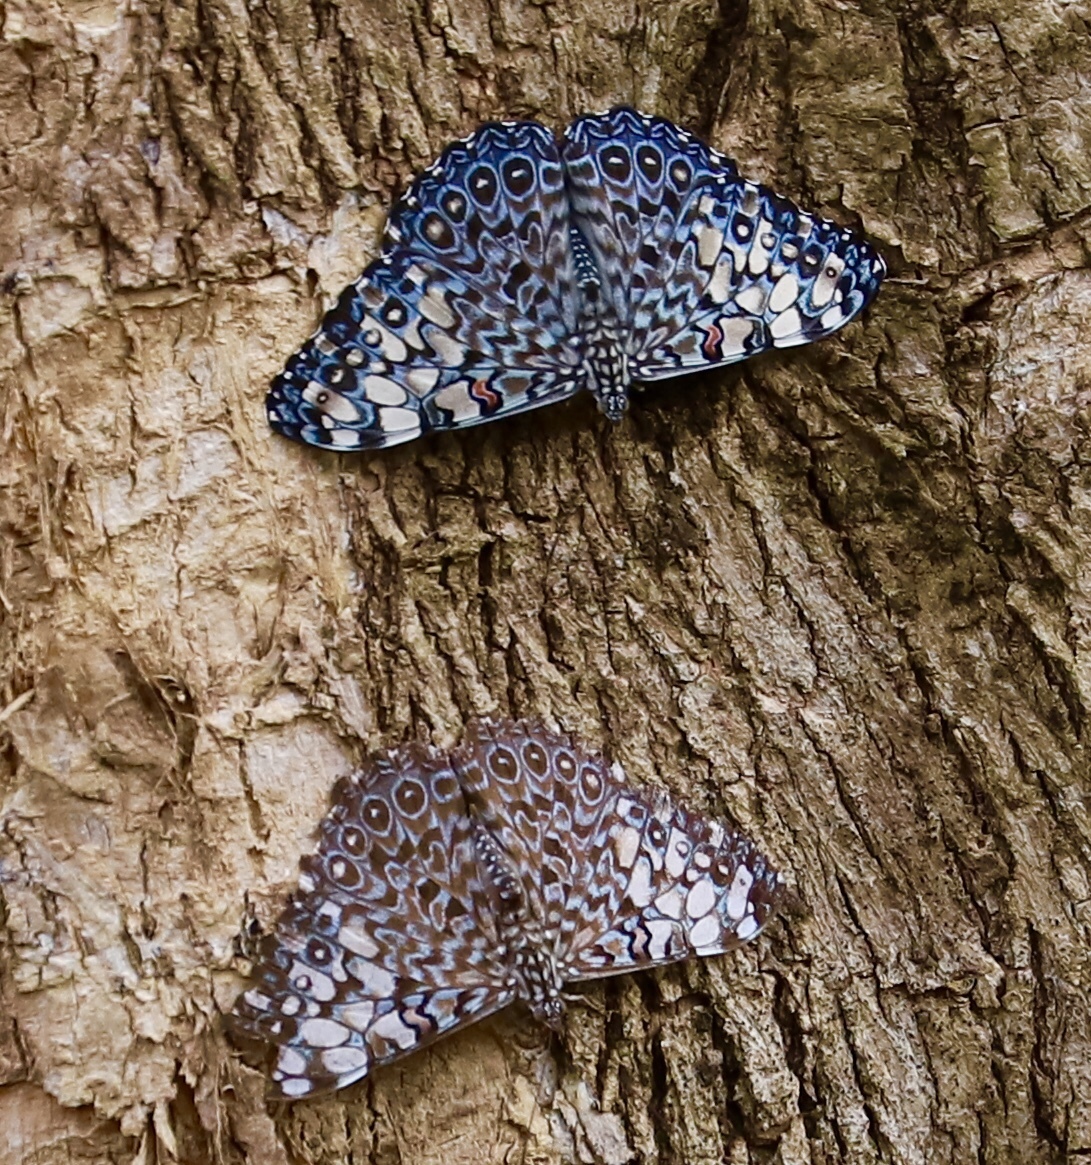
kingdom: Animalia
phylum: Arthropoda
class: Insecta
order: Lepidoptera
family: Nymphalidae
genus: Hamadryas
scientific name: Hamadryas feronia
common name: Variable cracker
